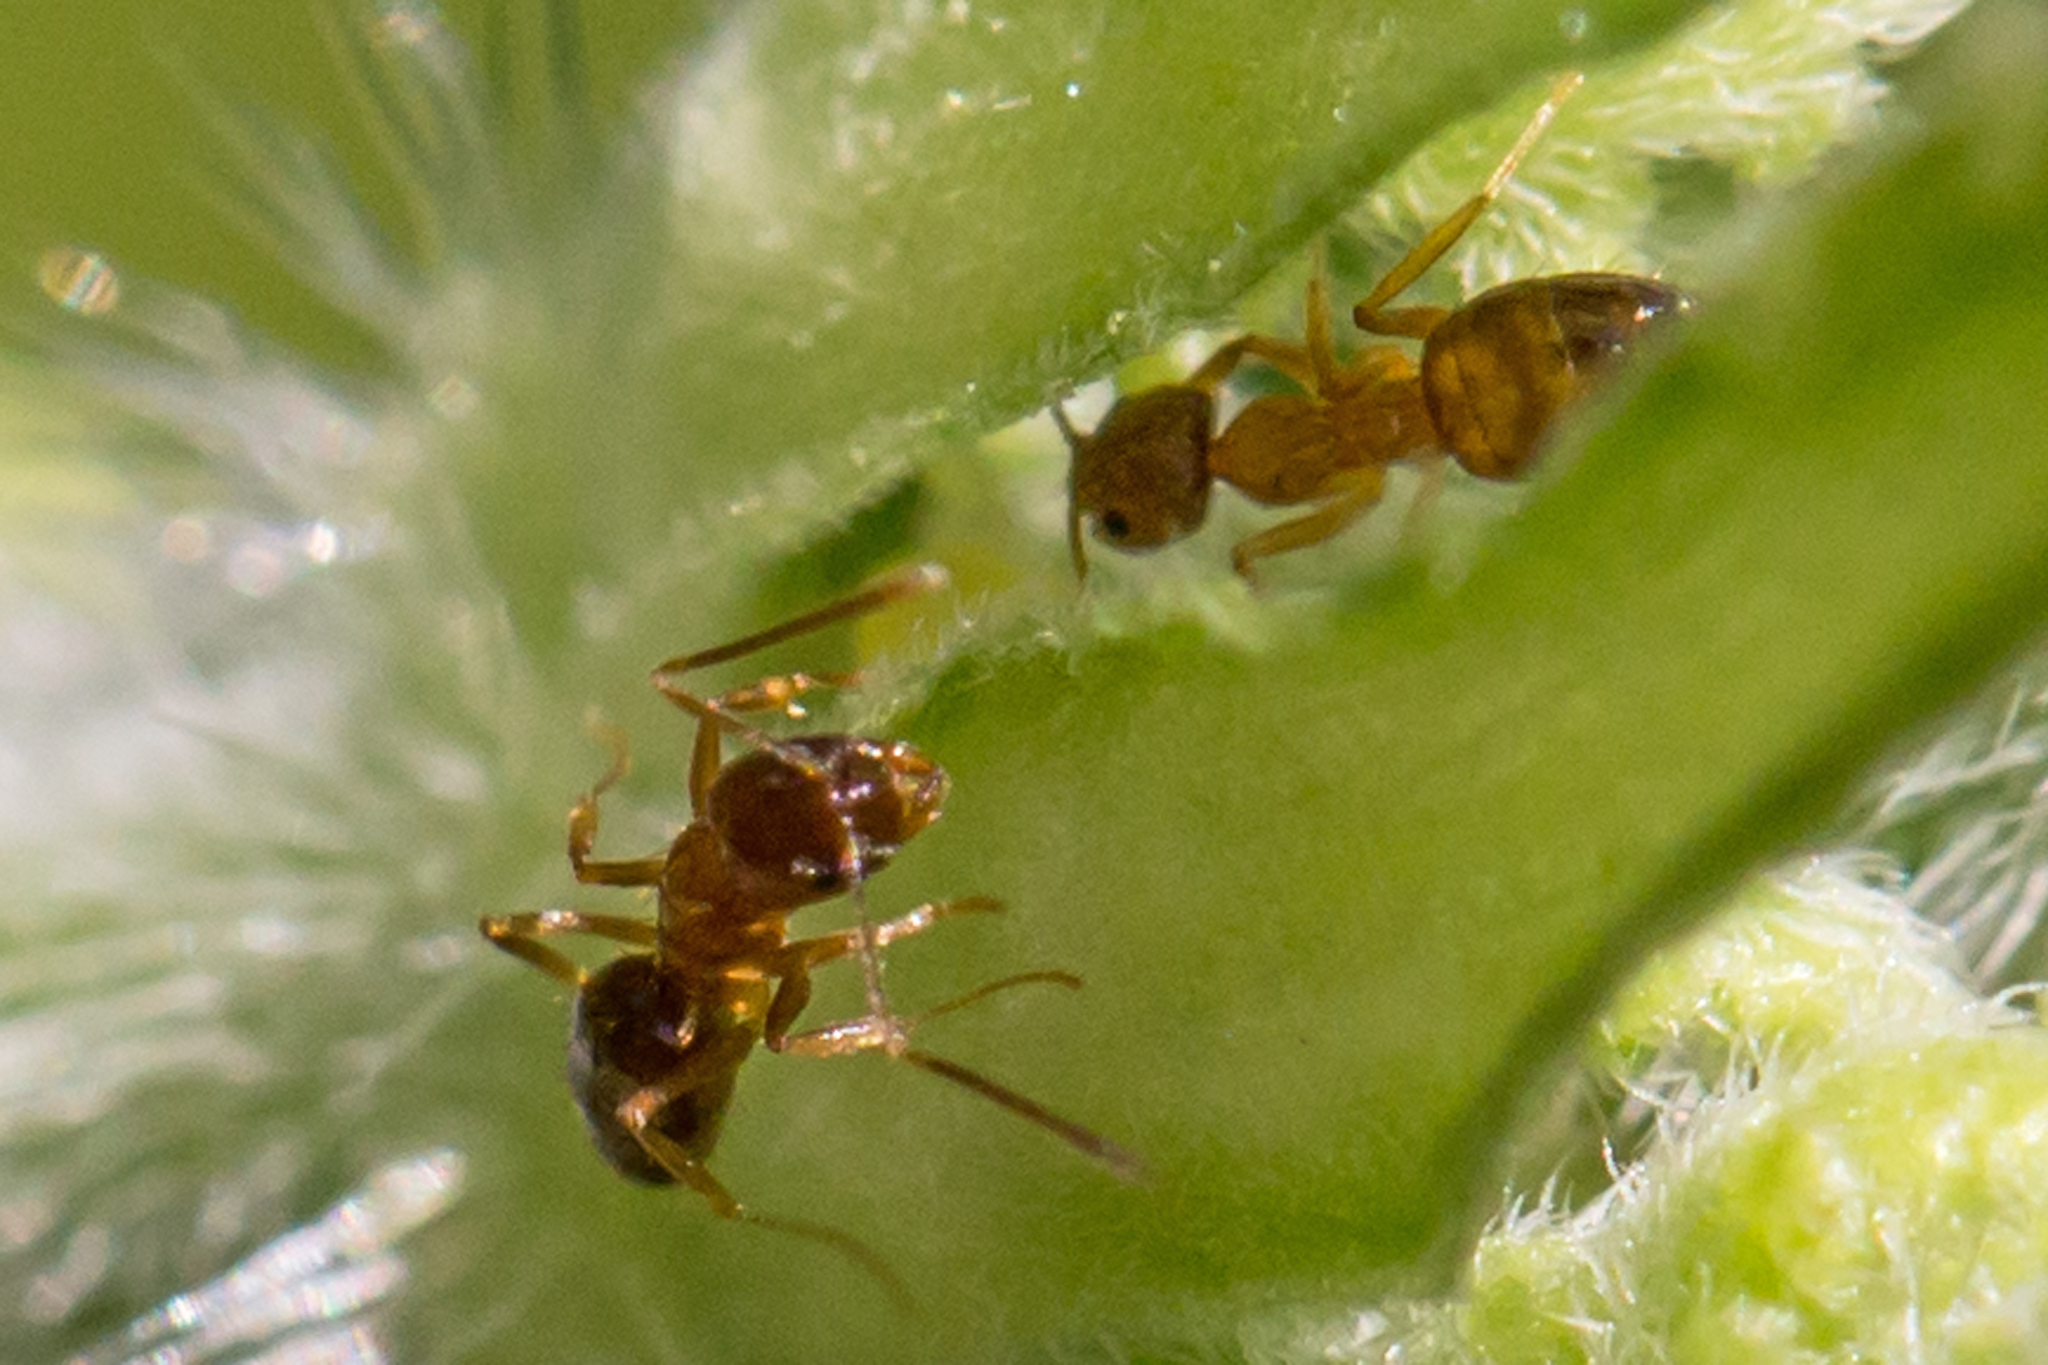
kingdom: Animalia
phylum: Arthropoda
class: Insecta
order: Hymenoptera
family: Formicidae
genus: Paratrechina
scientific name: Paratrechina flavipes
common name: Eastern asian formicine ant
